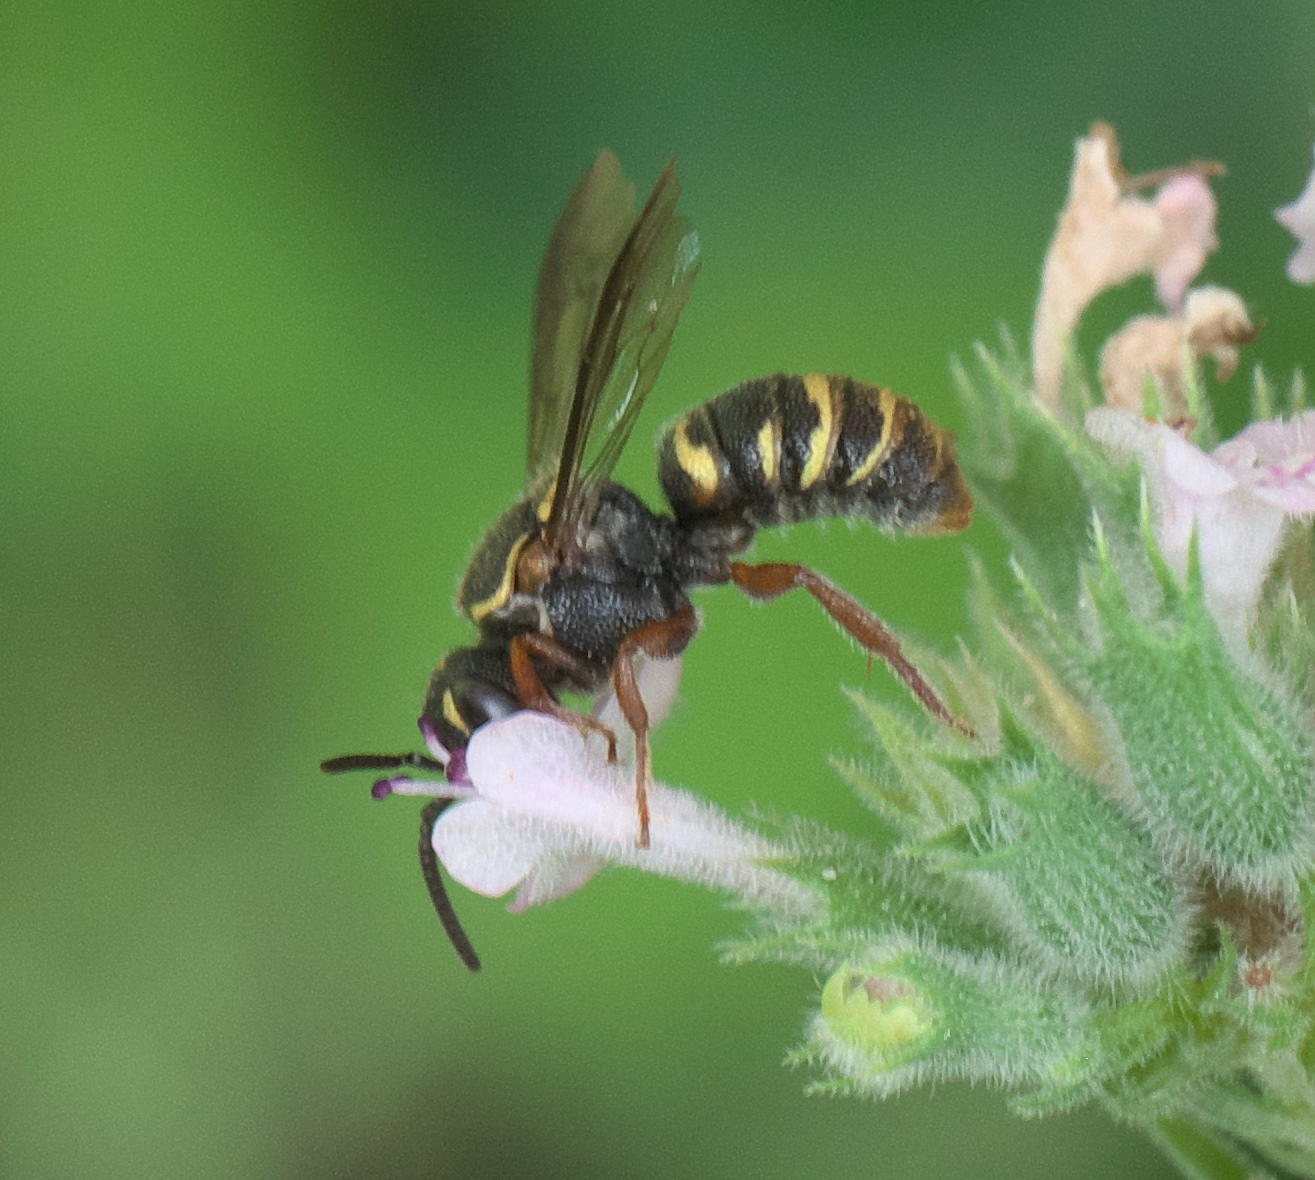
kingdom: Animalia
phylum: Arthropoda
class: Insecta
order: Hymenoptera
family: Megachilidae
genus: Stelis
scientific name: Stelis costalis
